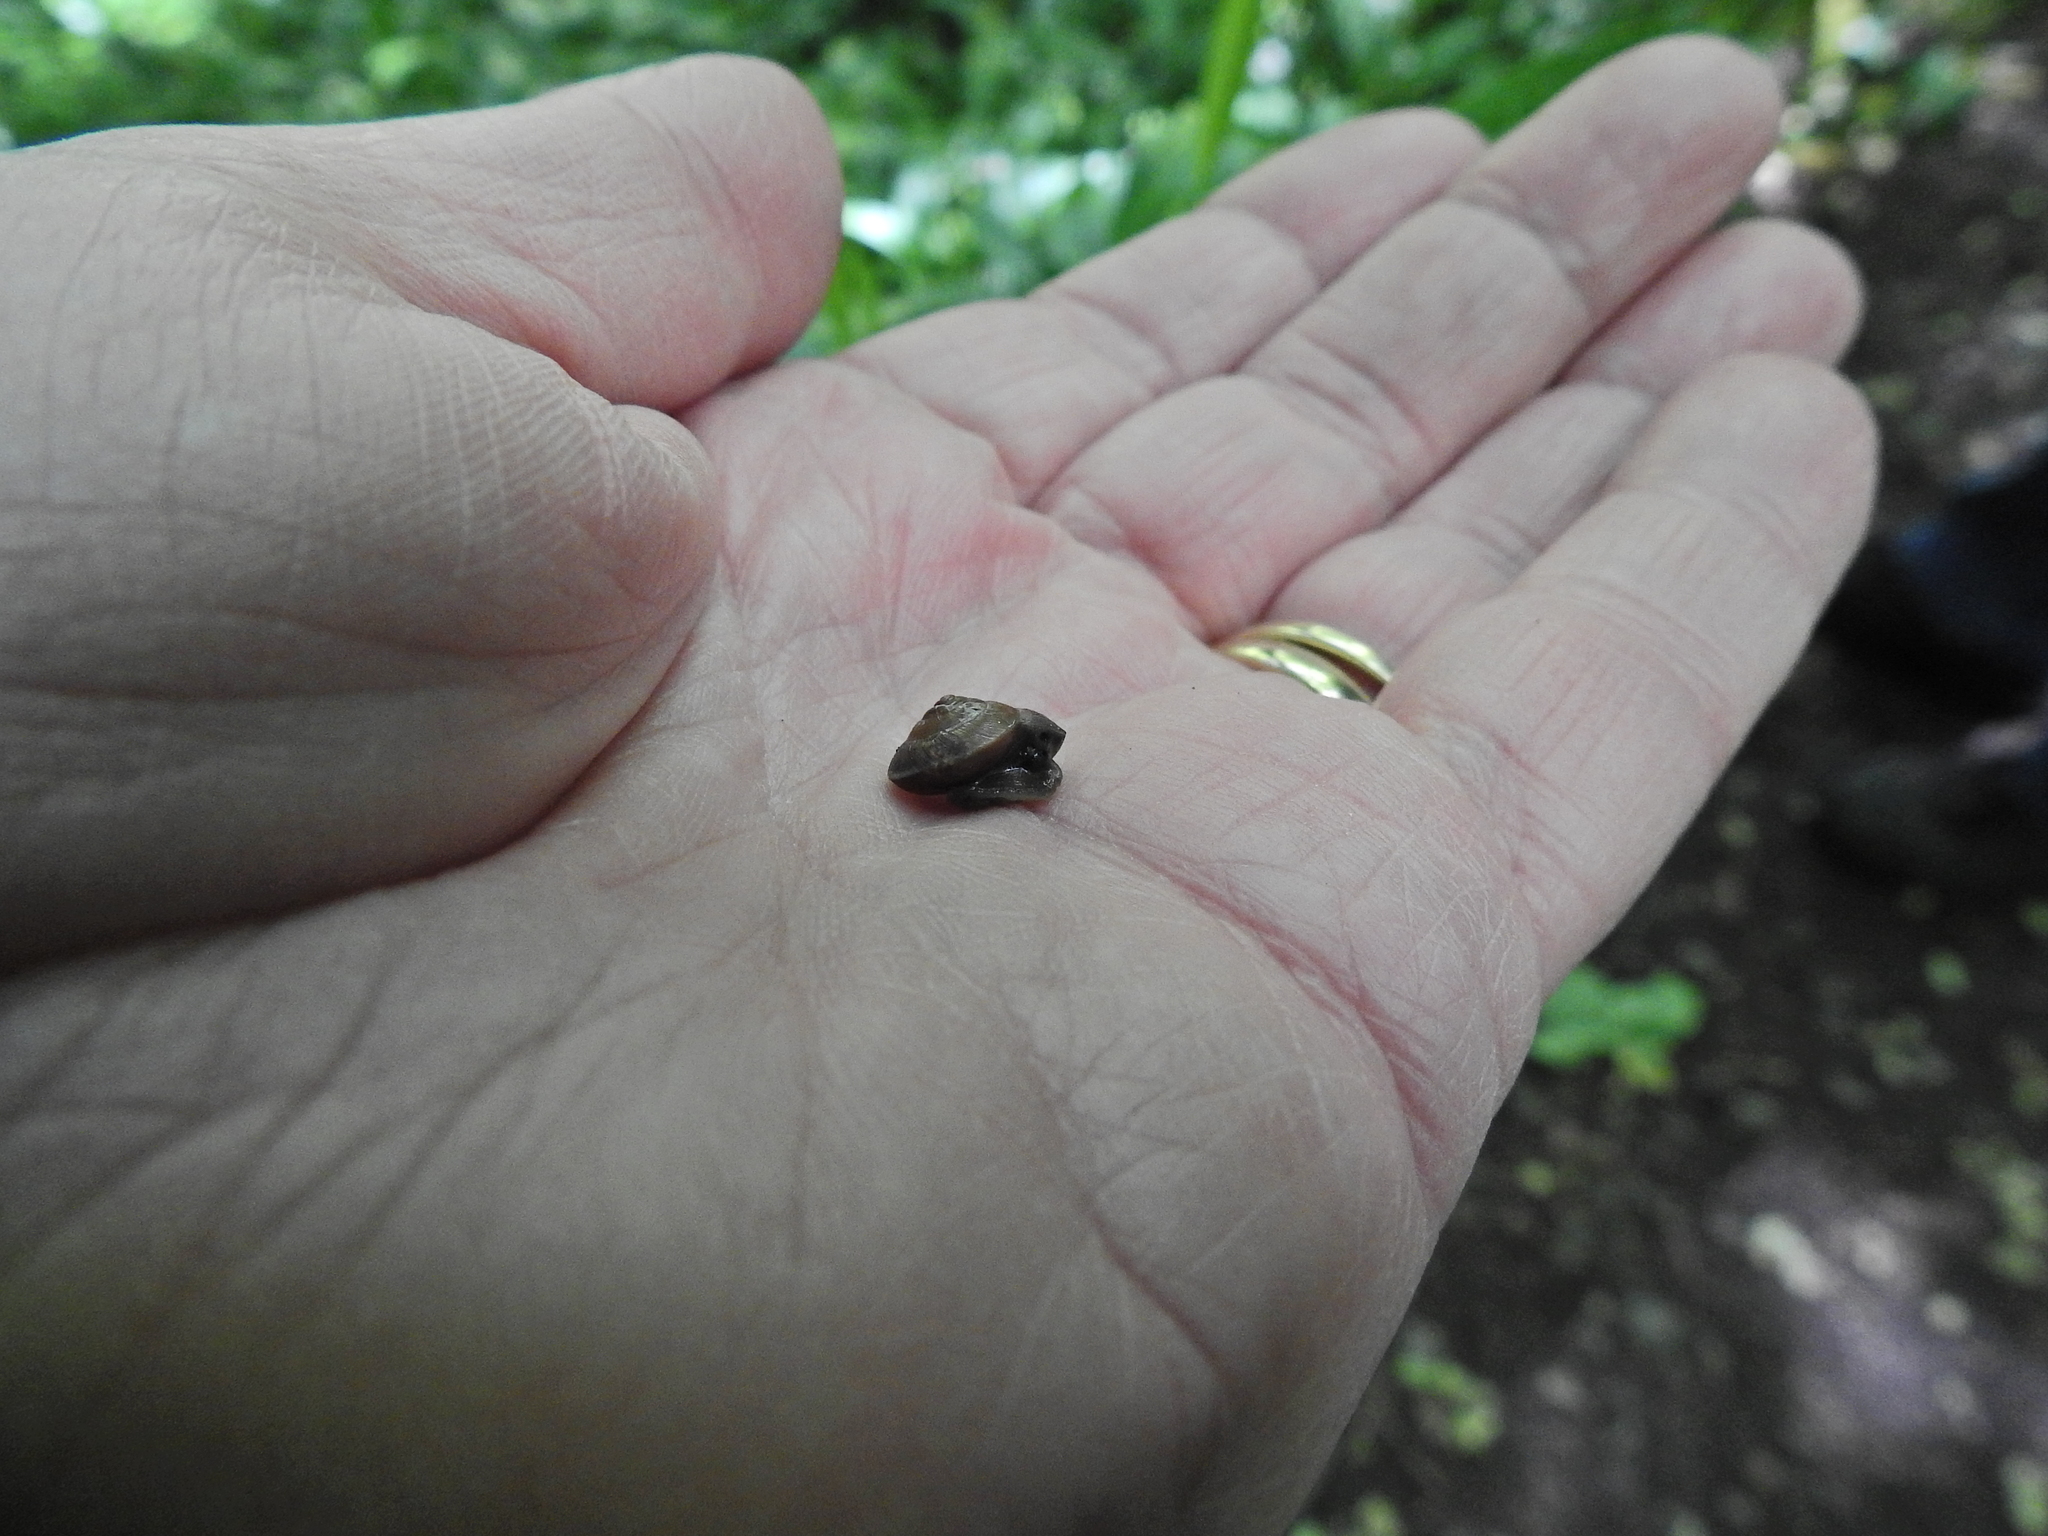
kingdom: Animalia
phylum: Mollusca
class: Gastropoda
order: Stylommatophora
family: Hygromiidae
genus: Hygromia
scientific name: Hygromia cinctella
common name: Girdled snail
